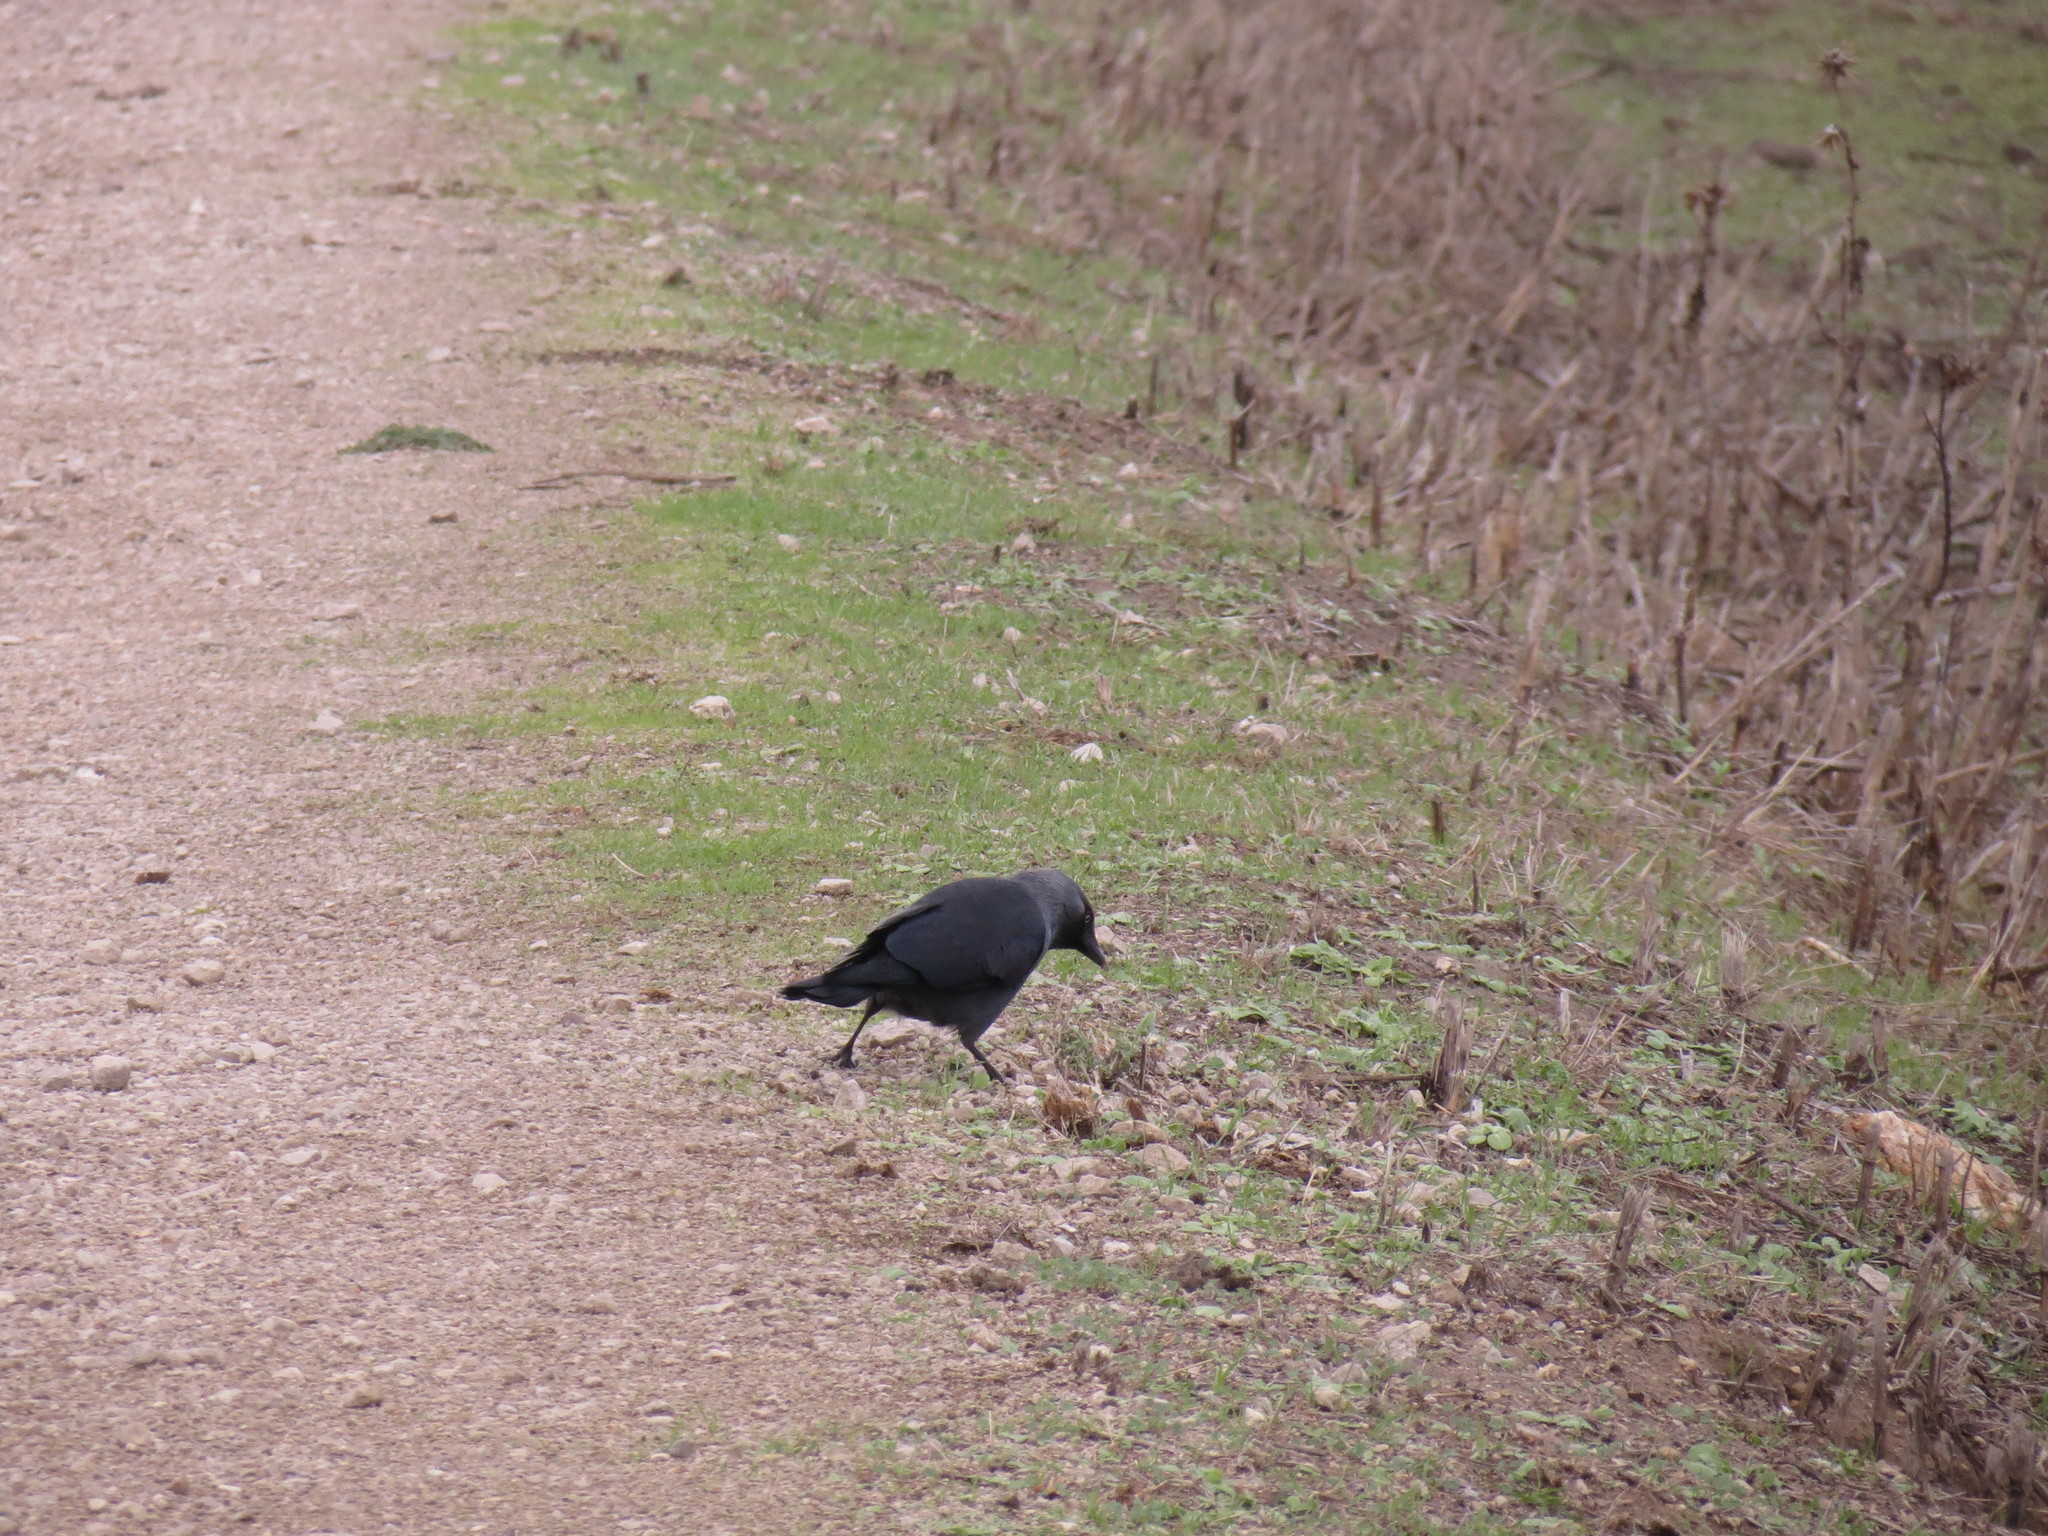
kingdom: Animalia
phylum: Chordata
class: Aves
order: Passeriformes
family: Corvidae
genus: Coloeus
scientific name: Coloeus monedula
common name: Western jackdaw
